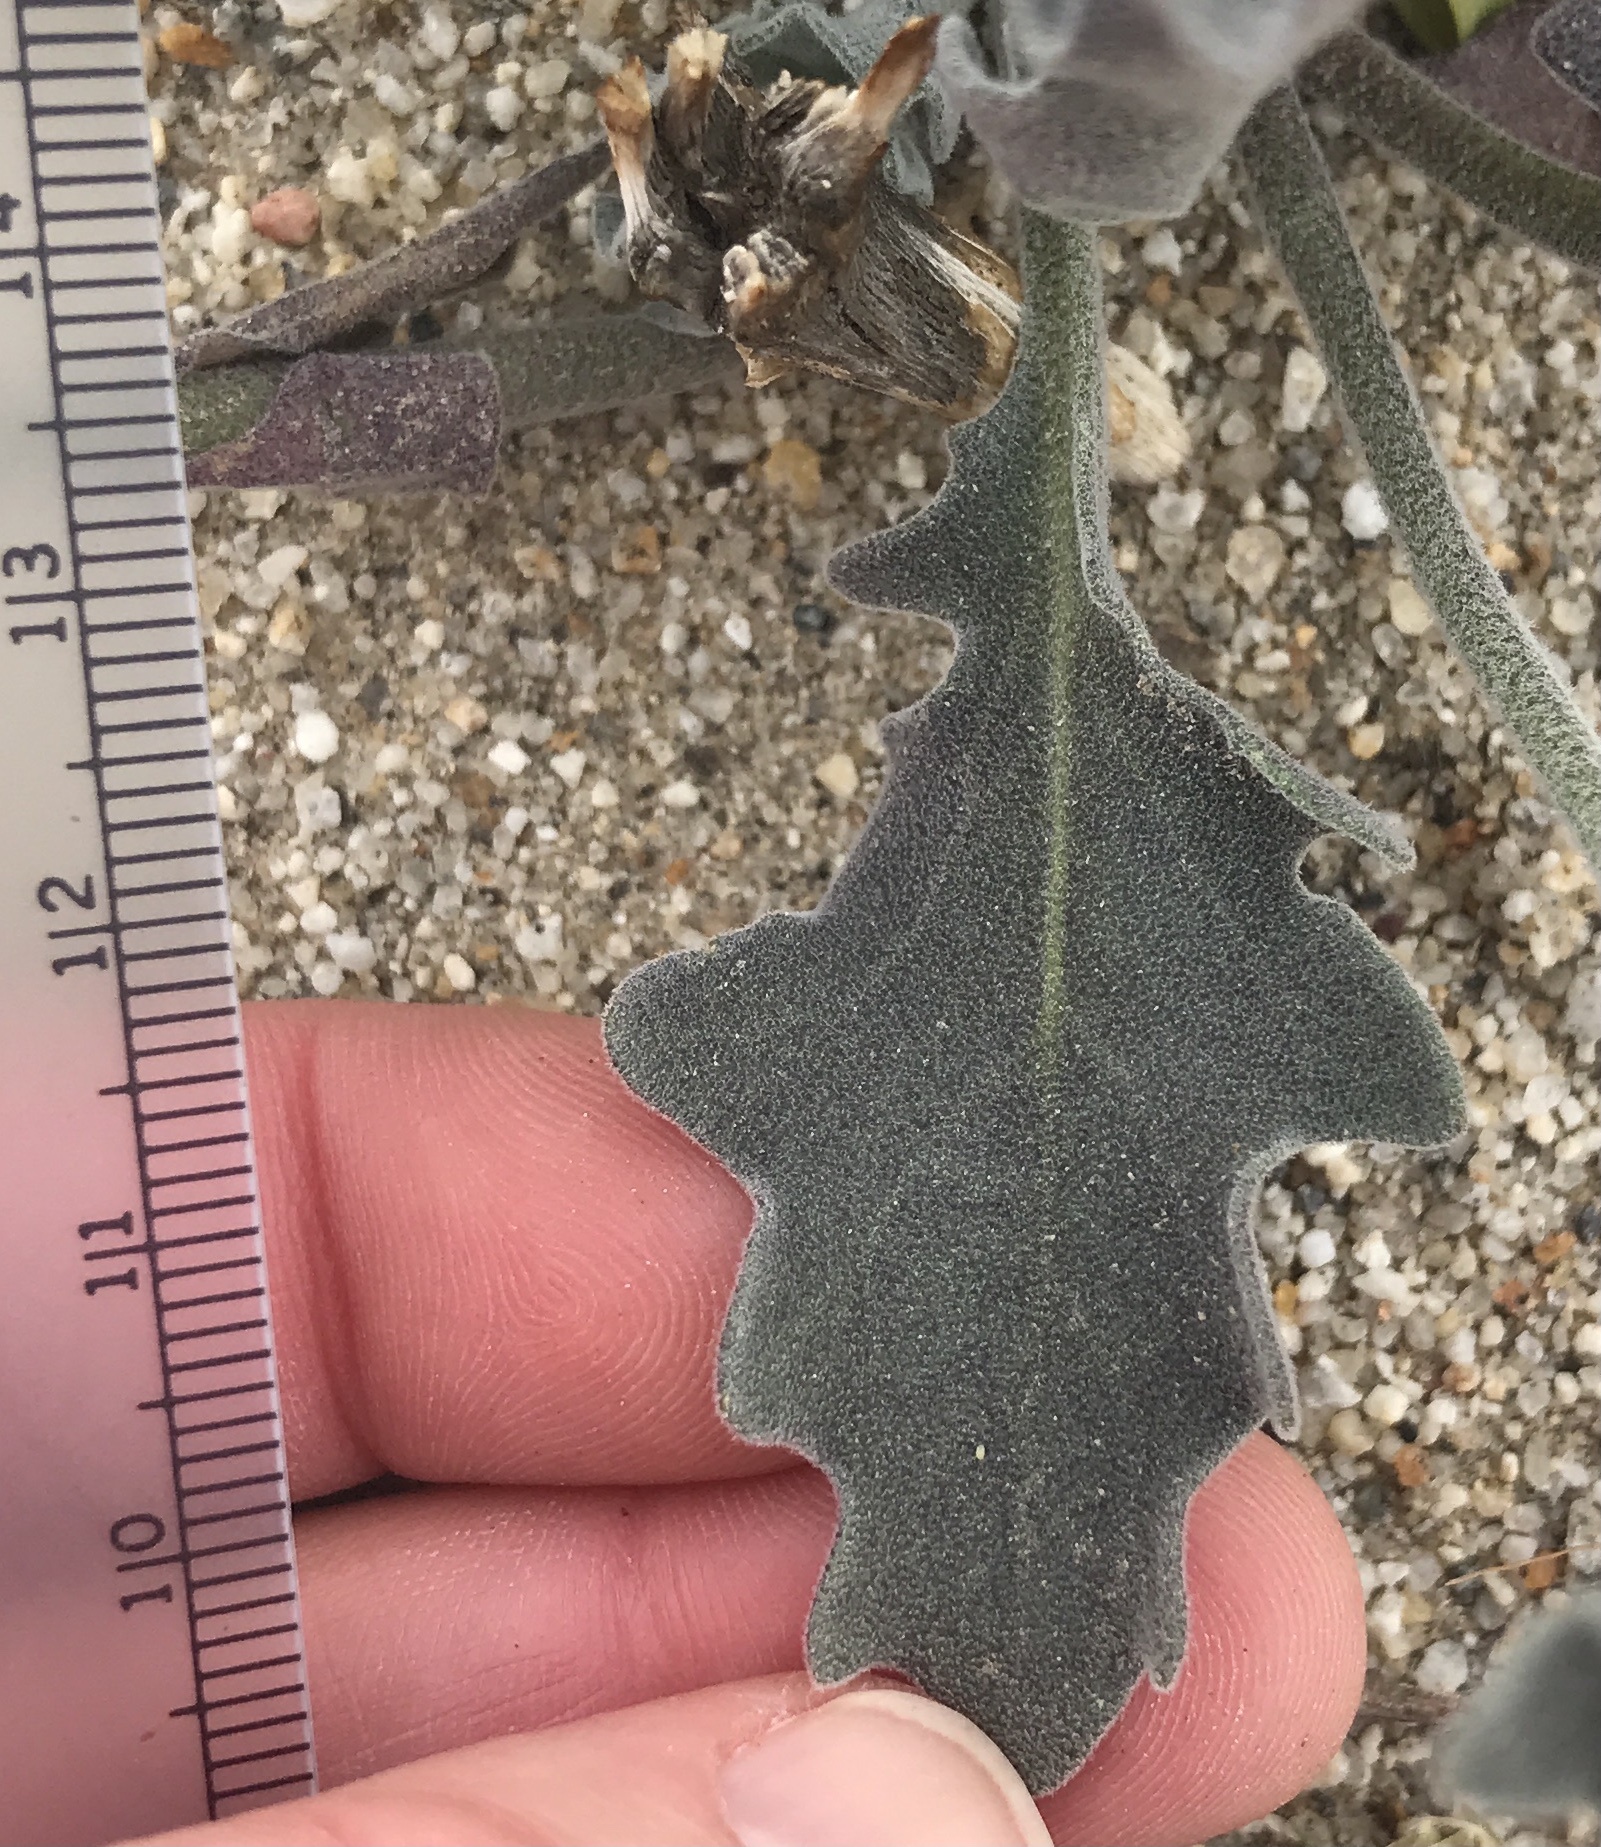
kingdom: Plantae
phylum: Tracheophyta
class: Magnoliopsida
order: Brassicales
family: Brassicaceae
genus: Dithyrea
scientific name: Dithyrea californica
